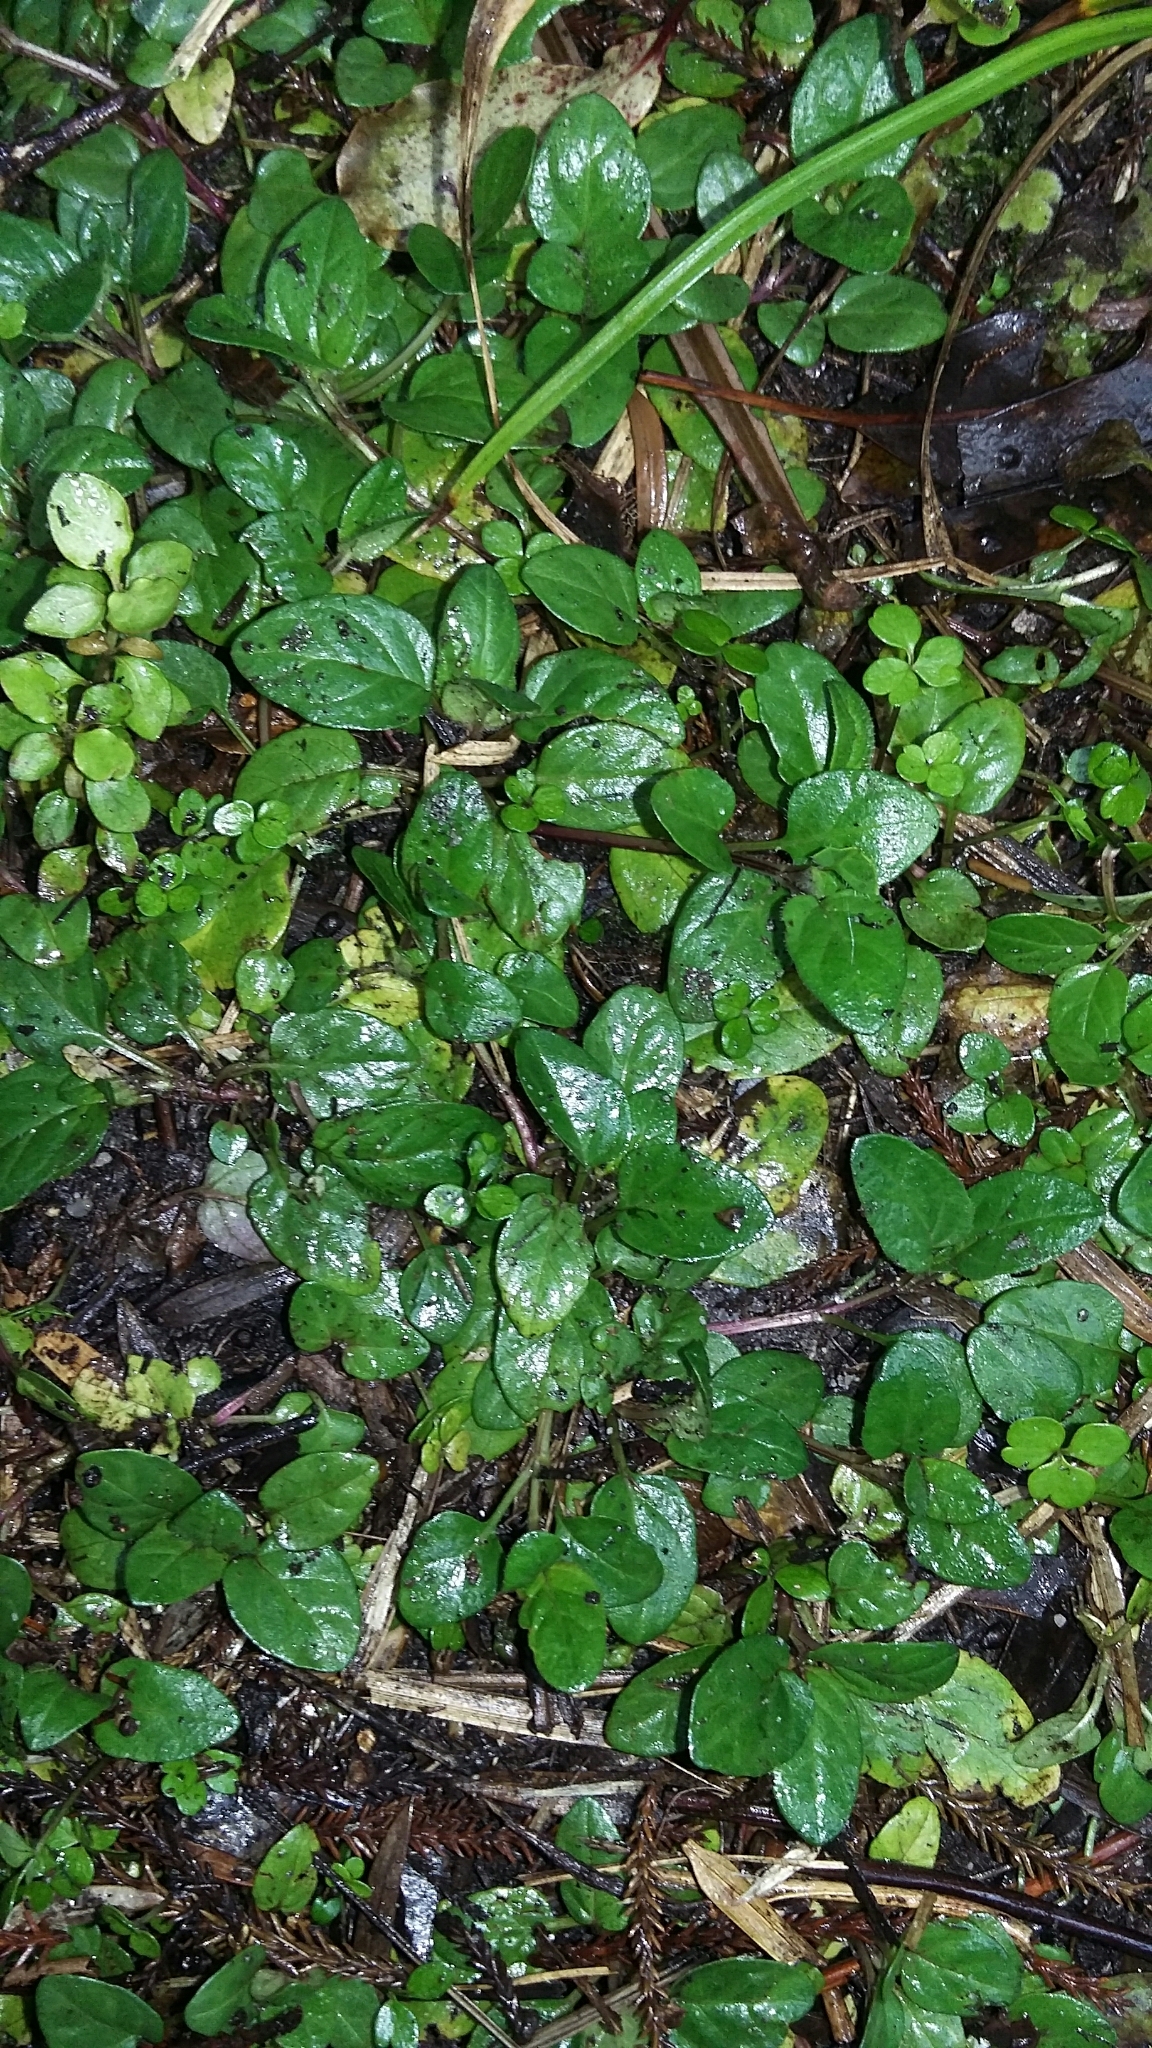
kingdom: Plantae
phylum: Tracheophyta
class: Magnoliopsida
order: Lamiales
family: Lamiaceae
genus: Prunella
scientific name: Prunella vulgaris
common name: Heal-all
